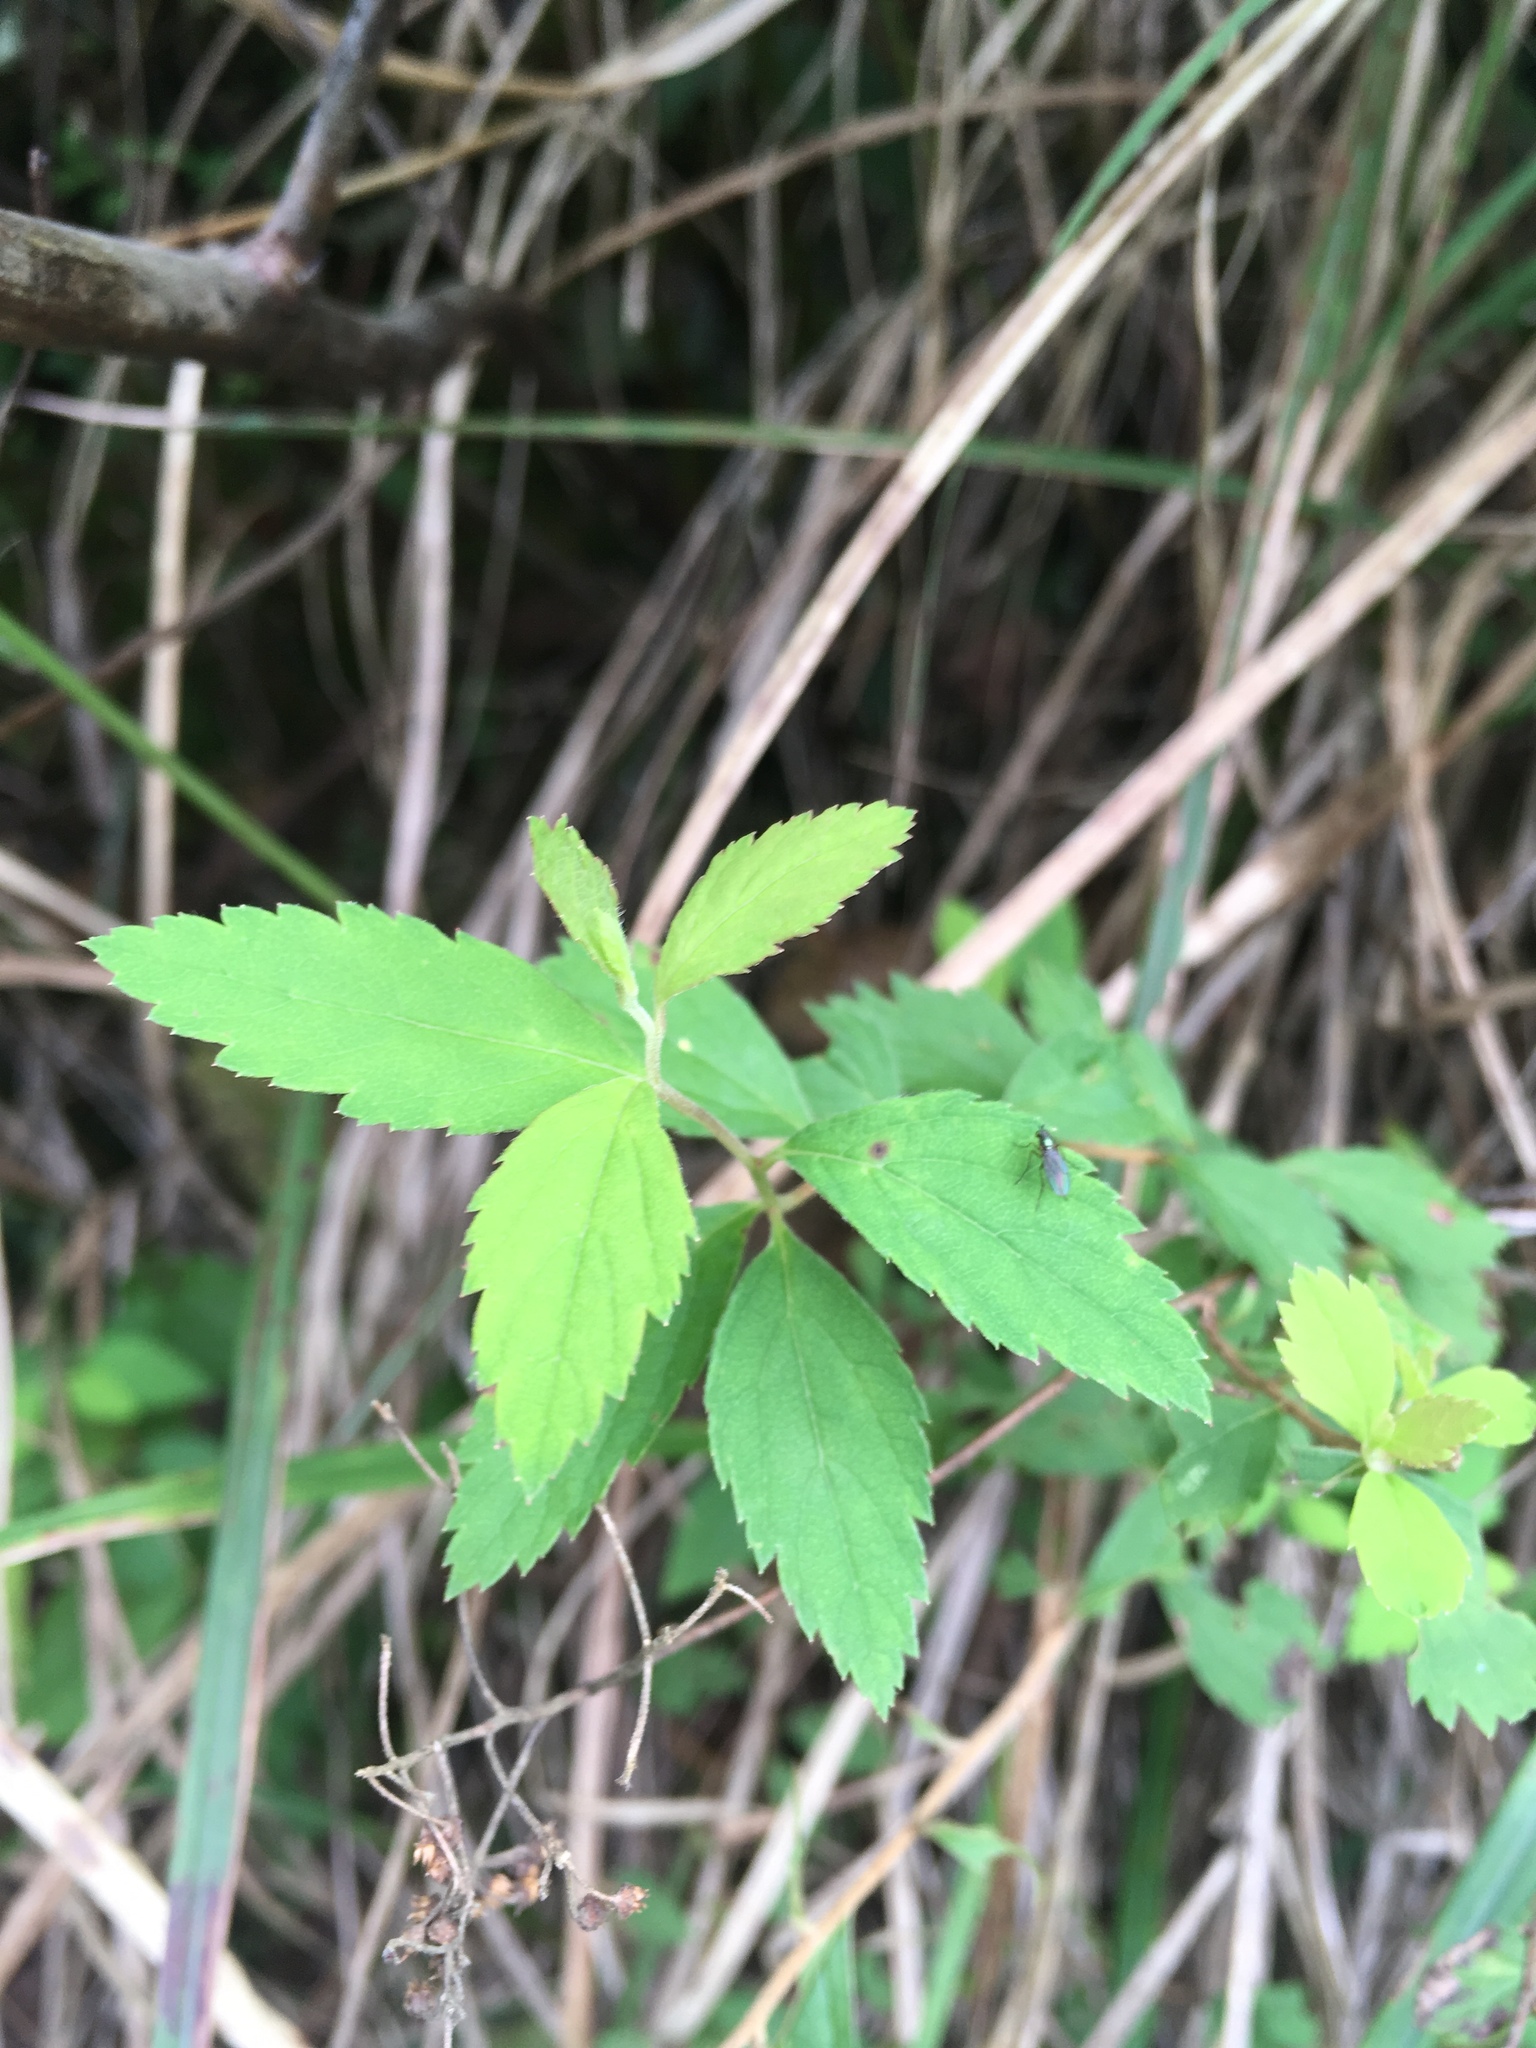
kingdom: Plantae
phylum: Tracheophyta
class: Magnoliopsida
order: Rosales
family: Rosaceae
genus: Spiraea
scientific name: Spiraea japonica
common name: Japanese spiraea
